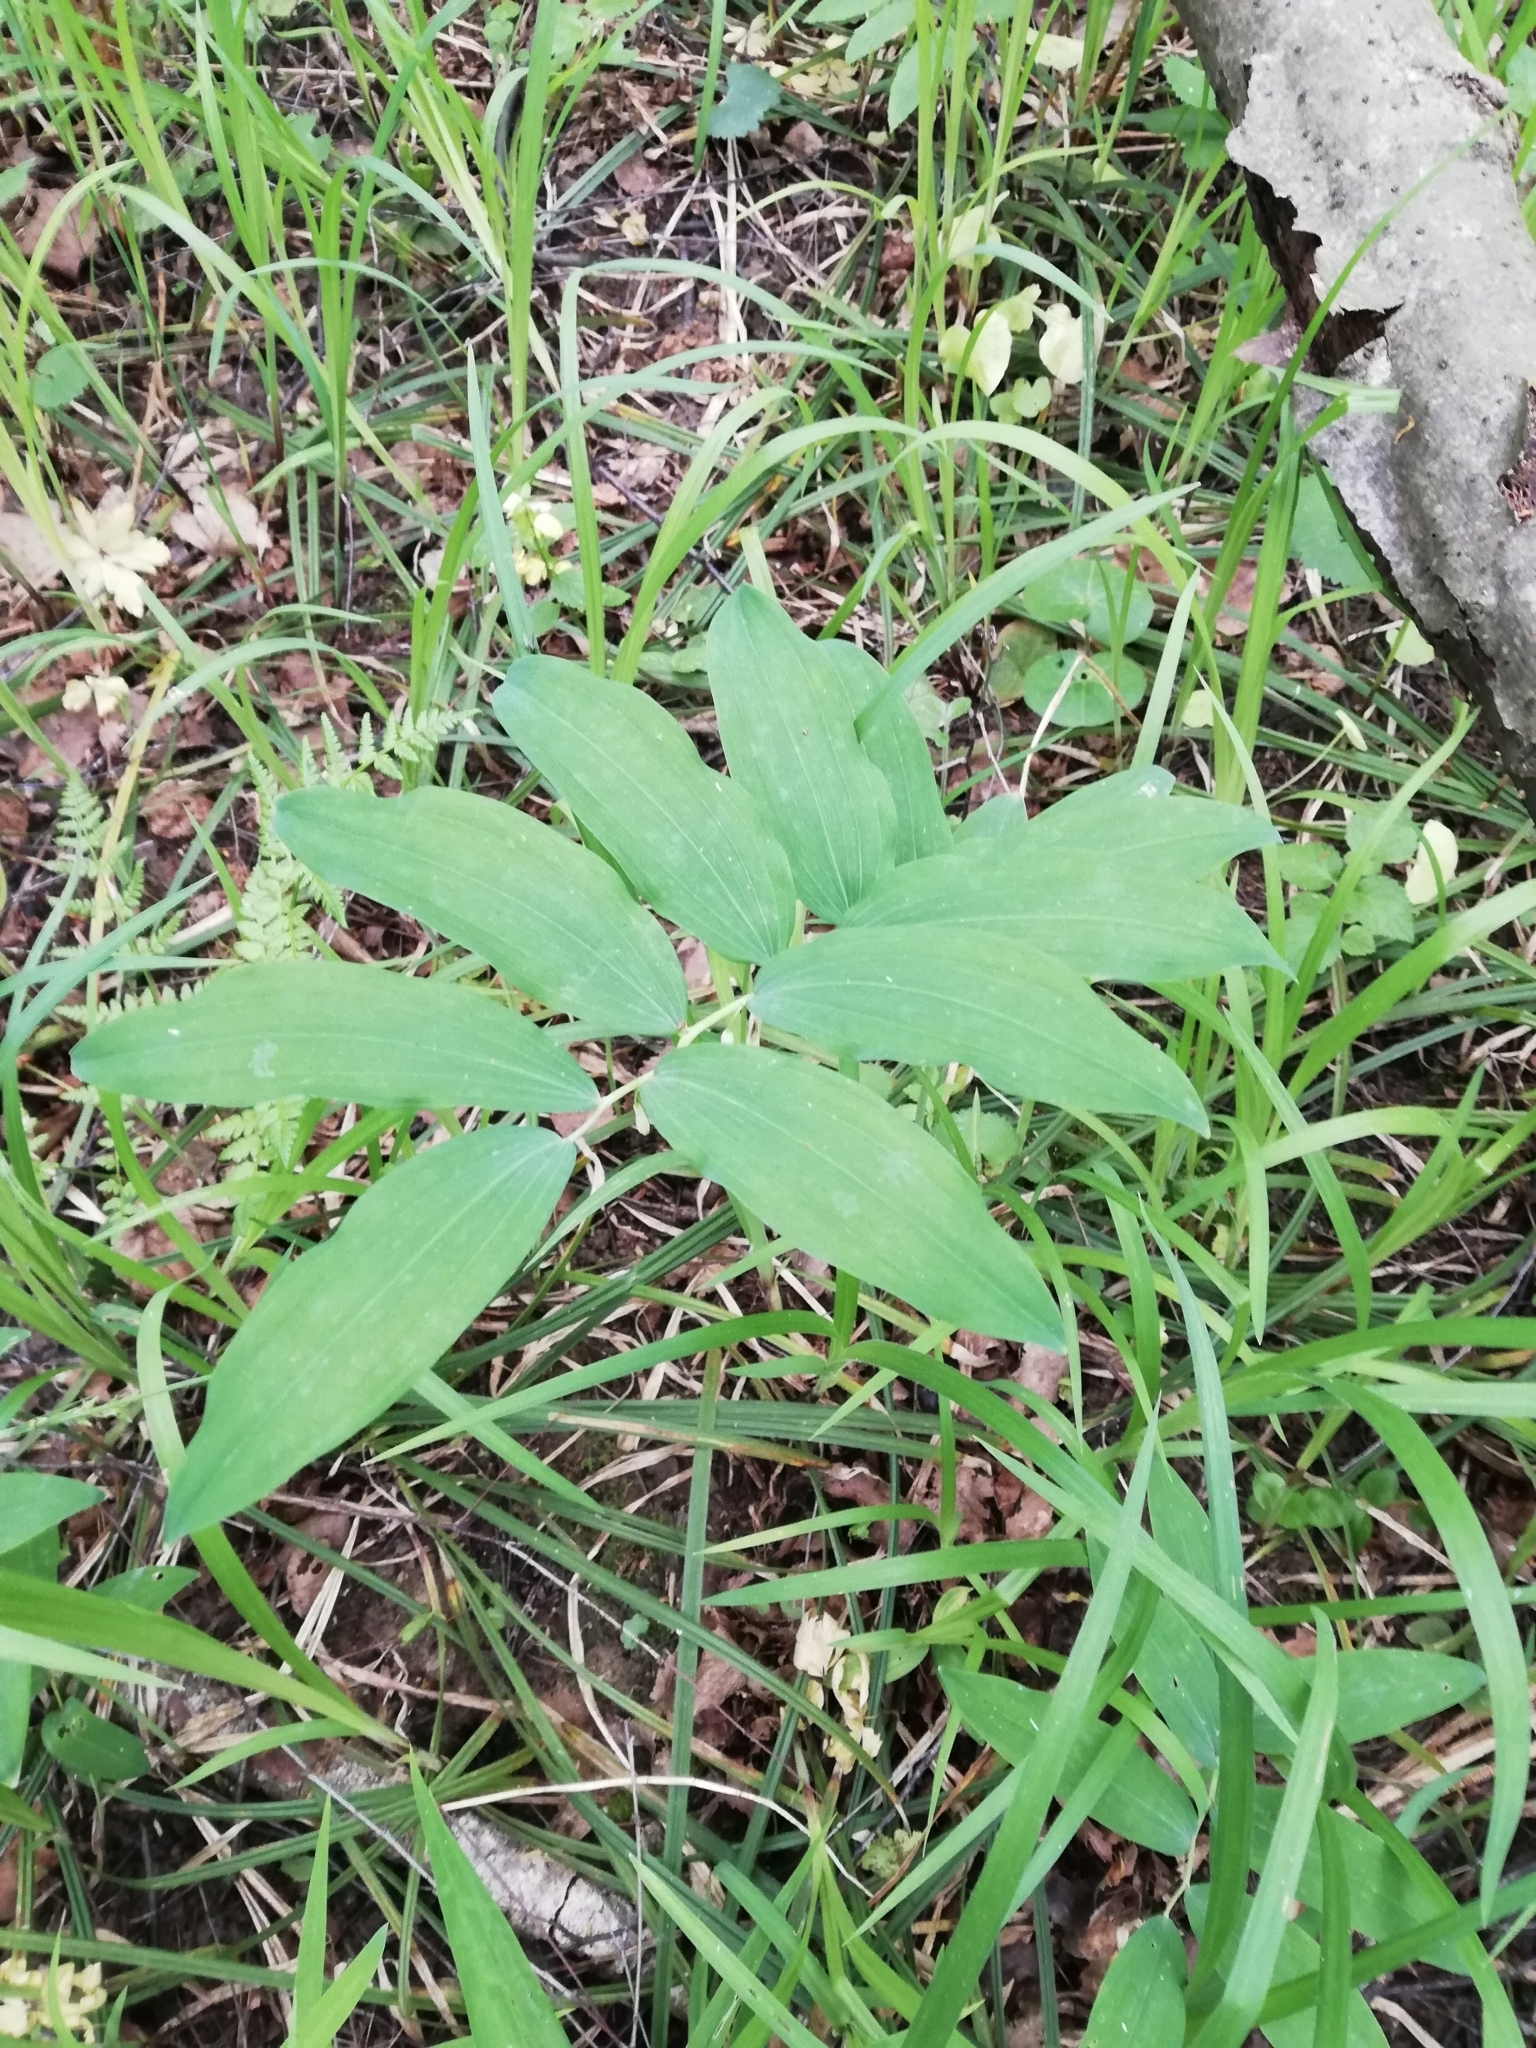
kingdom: Plantae
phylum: Tracheophyta
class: Liliopsida
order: Asparagales
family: Asparagaceae
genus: Polygonatum
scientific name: Polygonatum multiflorum
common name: Solomon's-seal
